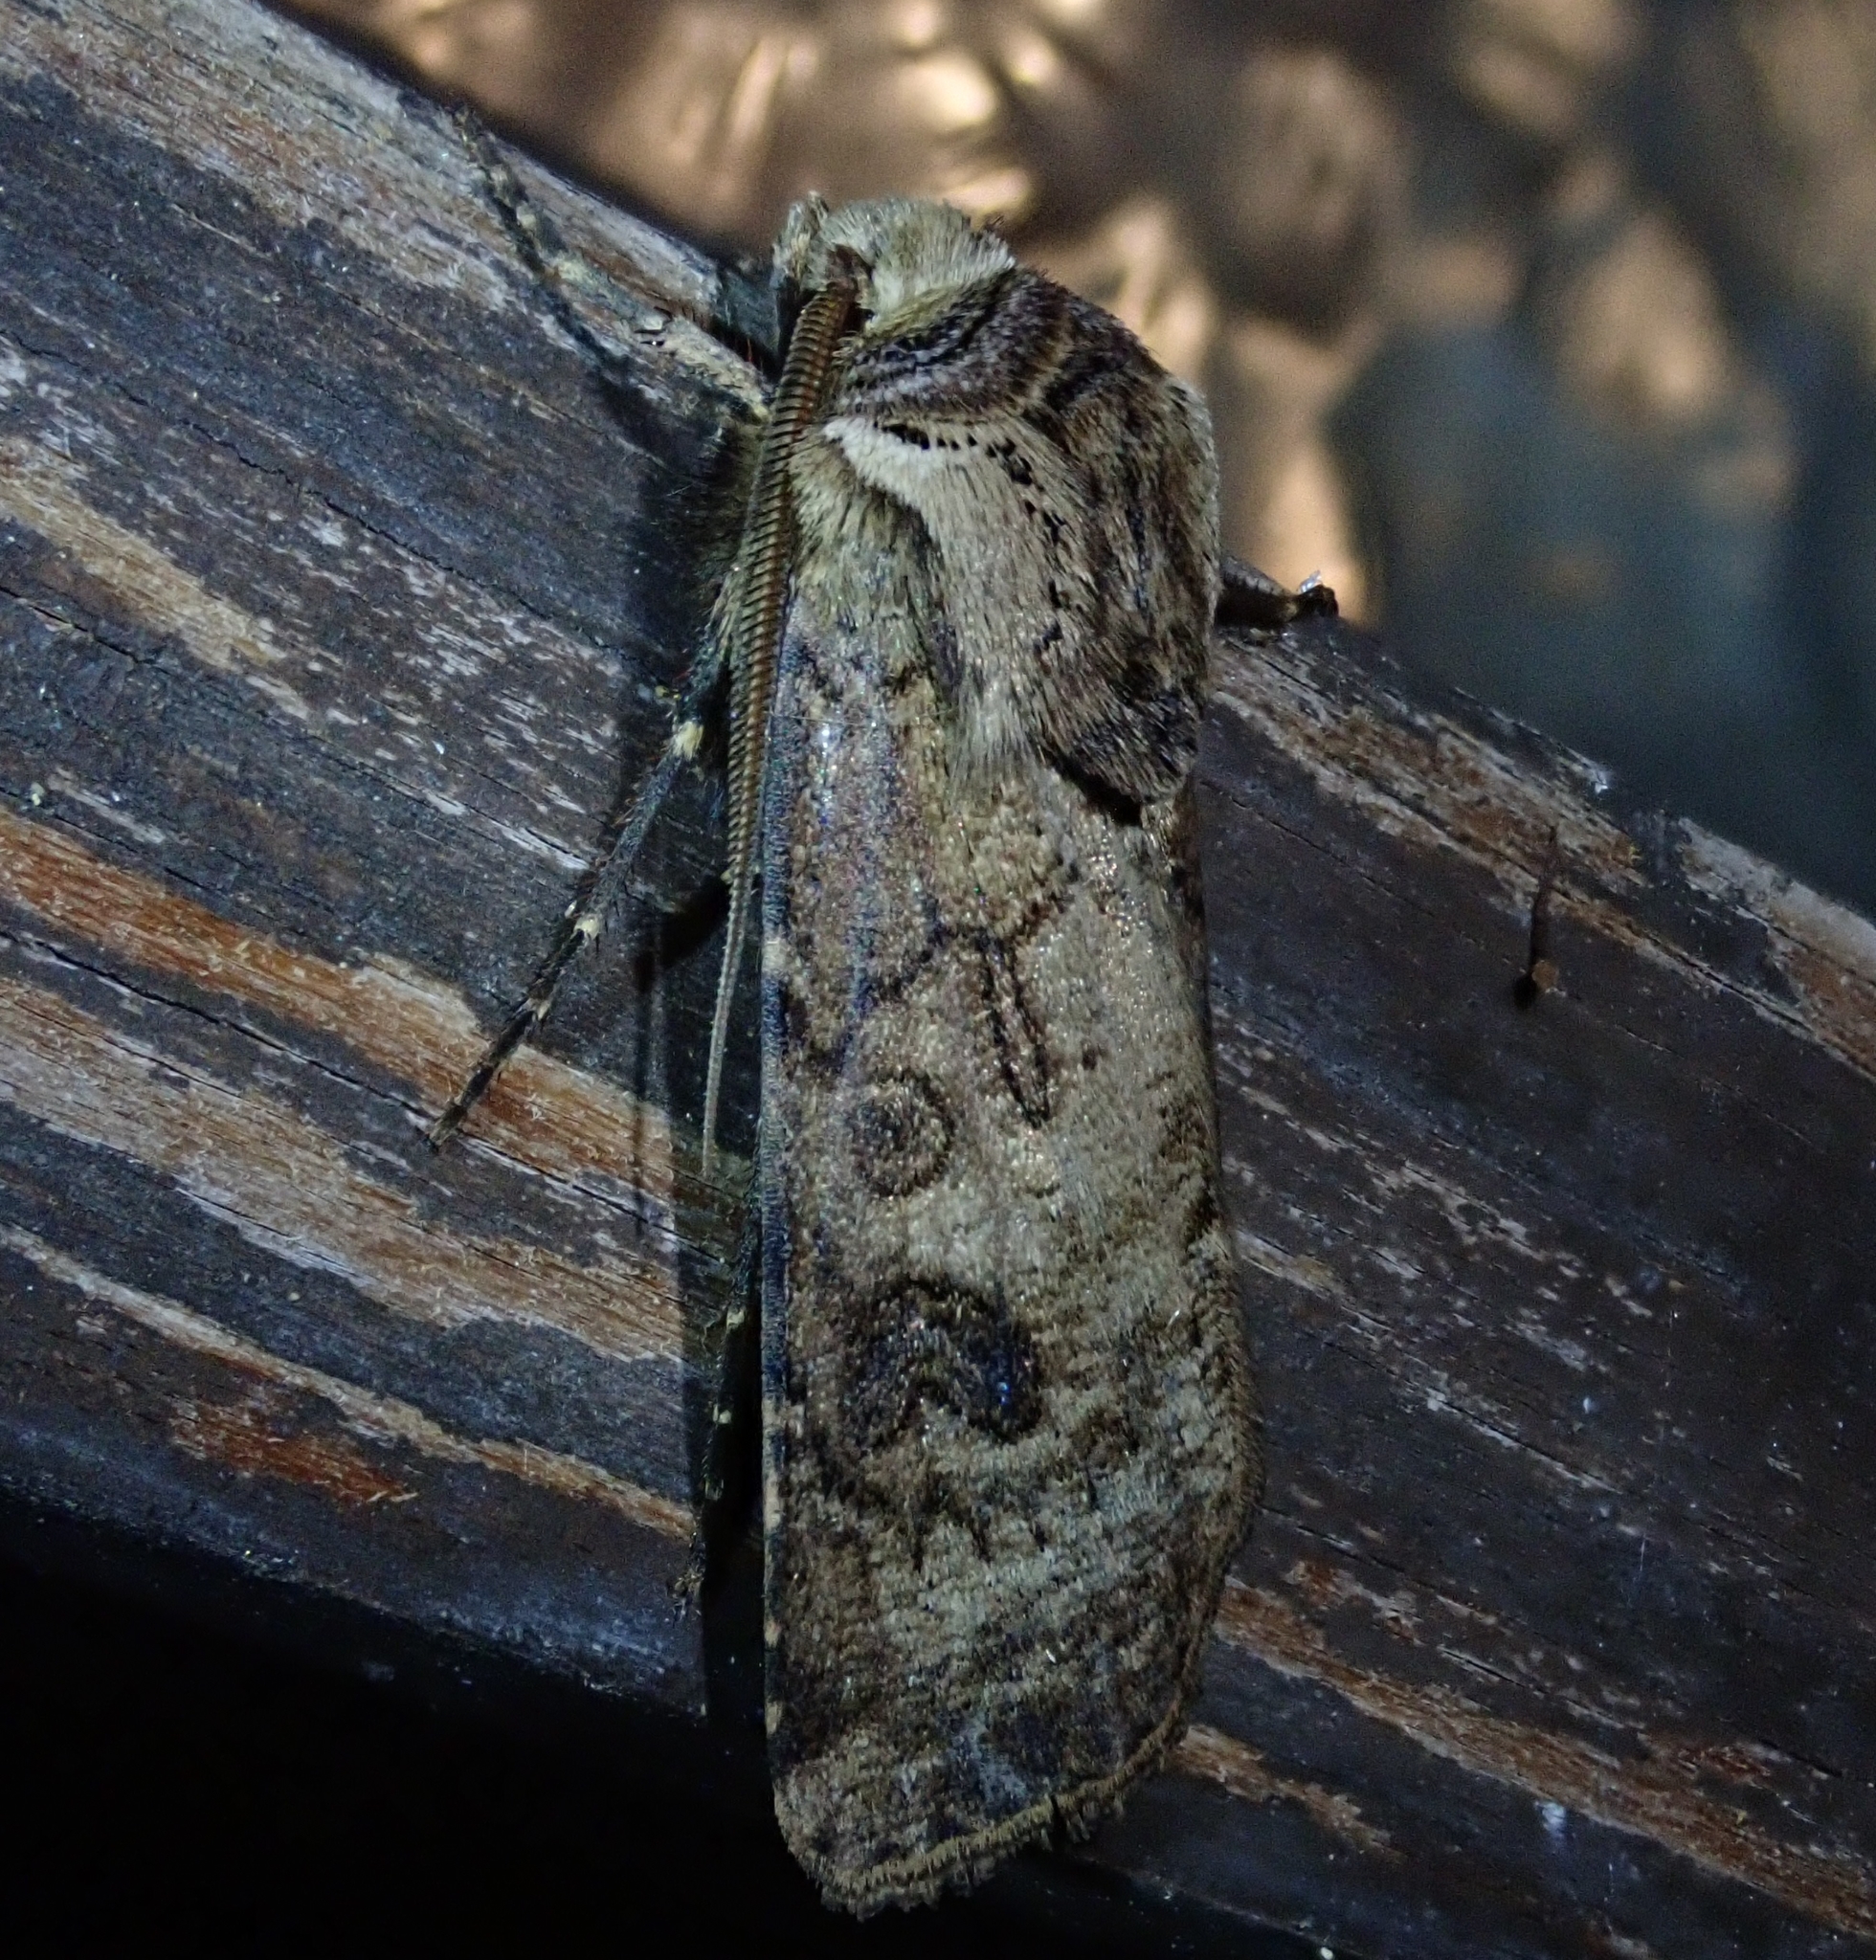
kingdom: Animalia
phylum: Arthropoda
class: Insecta
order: Lepidoptera
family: Noctuidae
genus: Agrotis
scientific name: Agrotis clavis
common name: Heart and club
